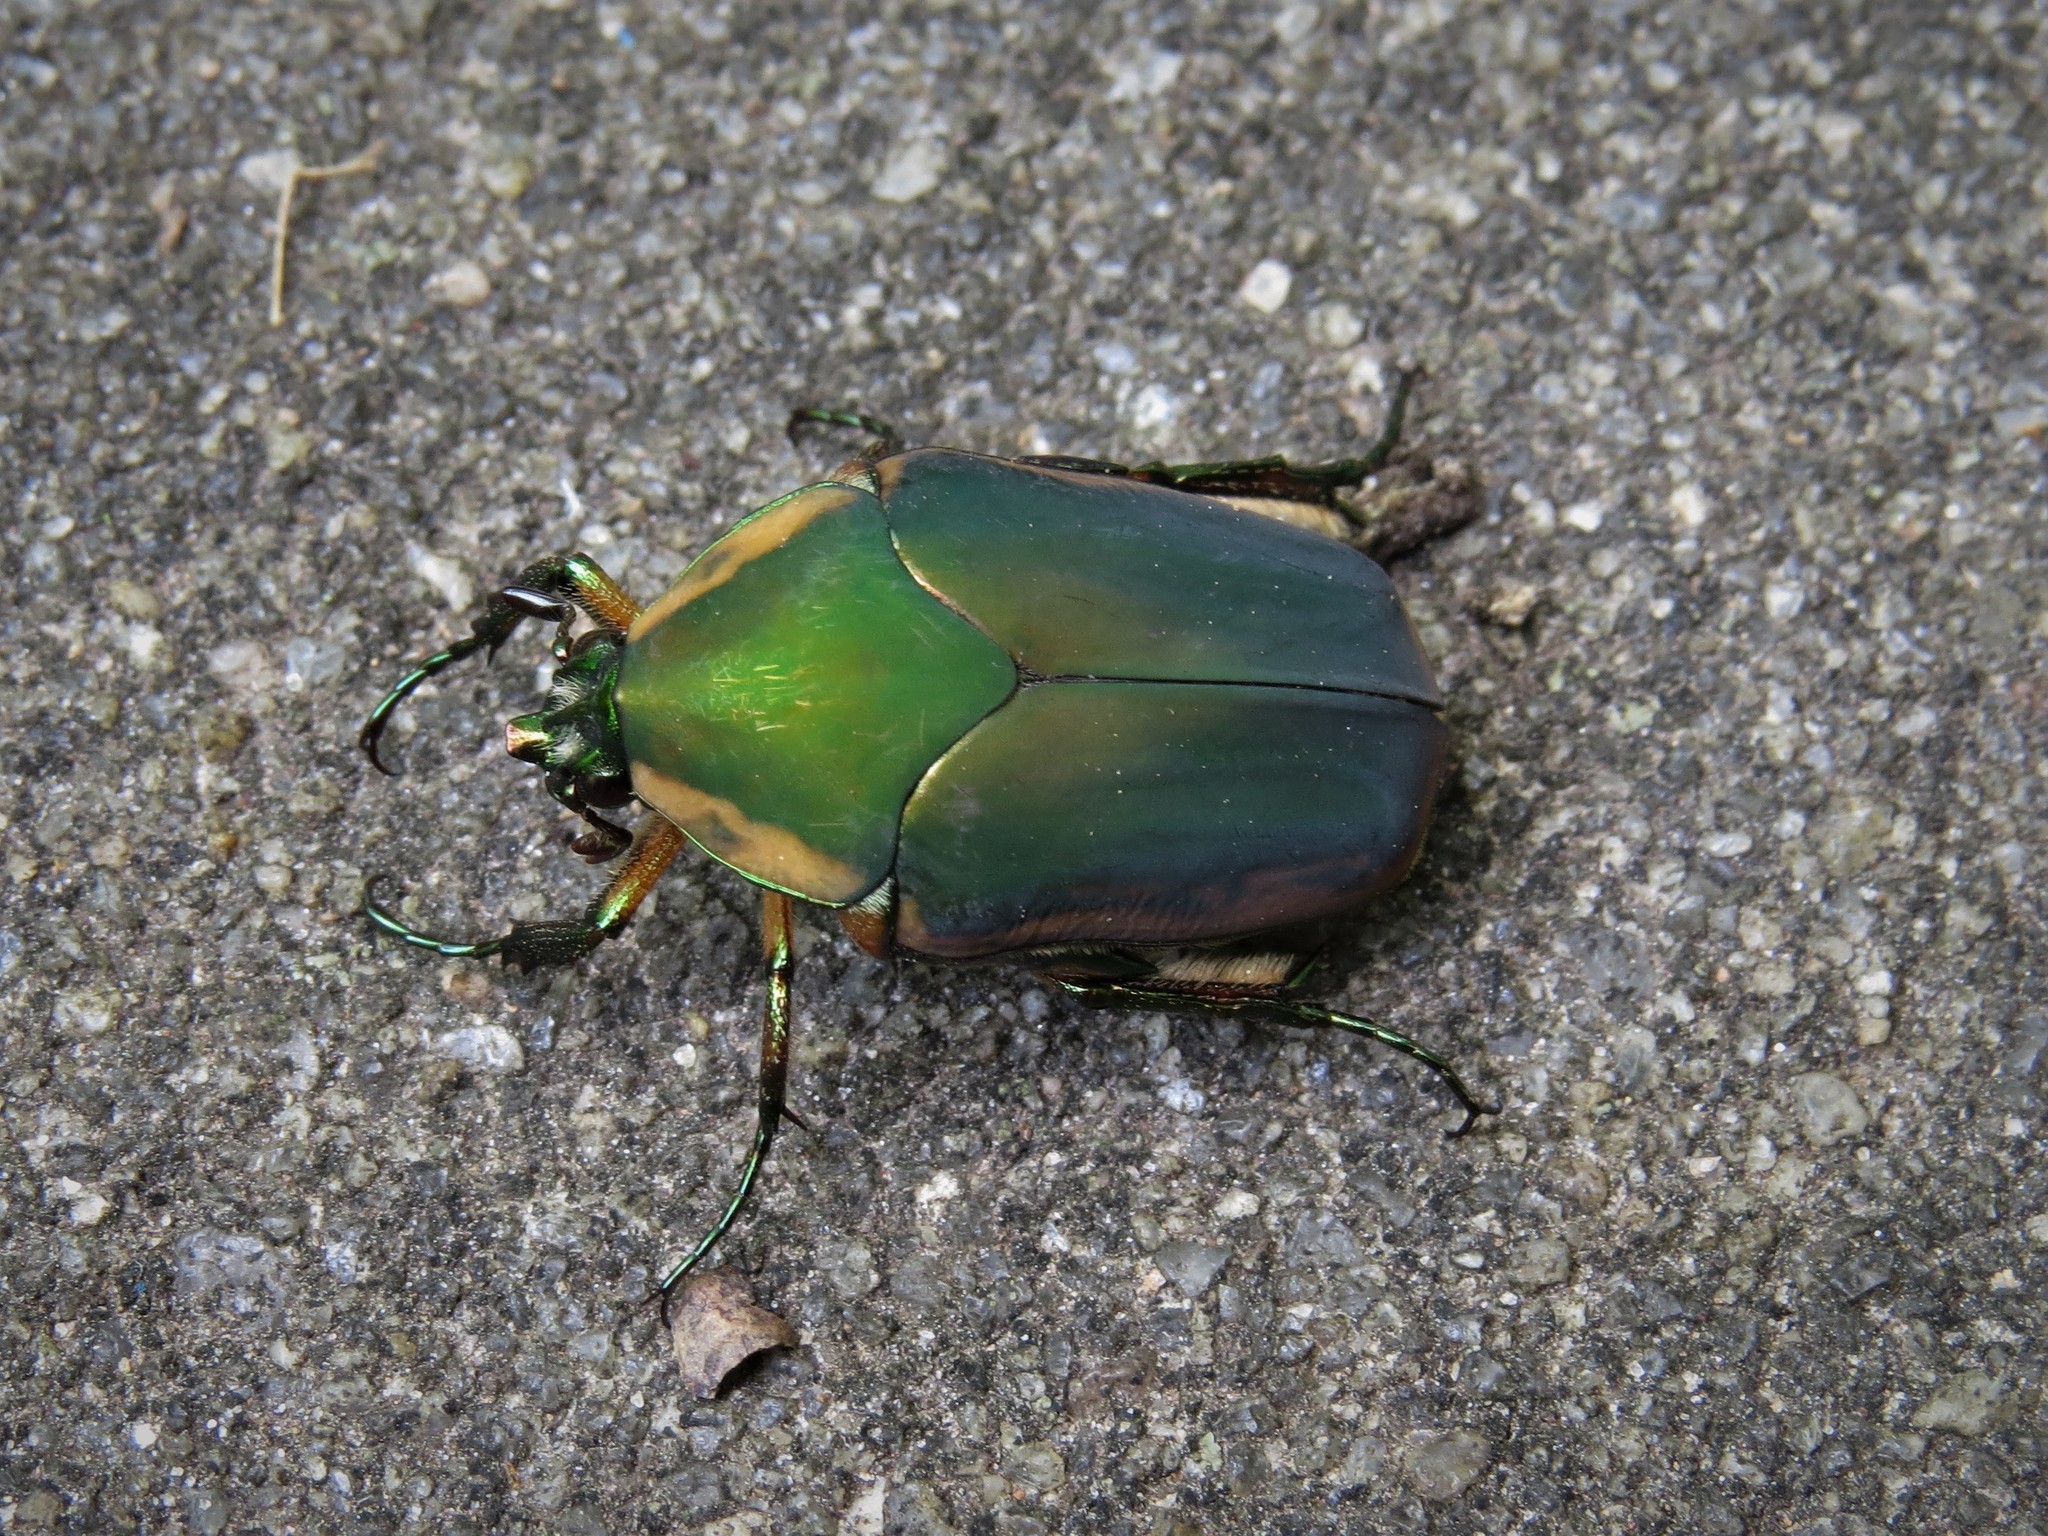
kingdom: Animalia
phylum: Arthropoda
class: Insecta
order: Coleoptera
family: Scarabaeidae
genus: Cotinis
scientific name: Cotinis nitida
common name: Common green june beetle
